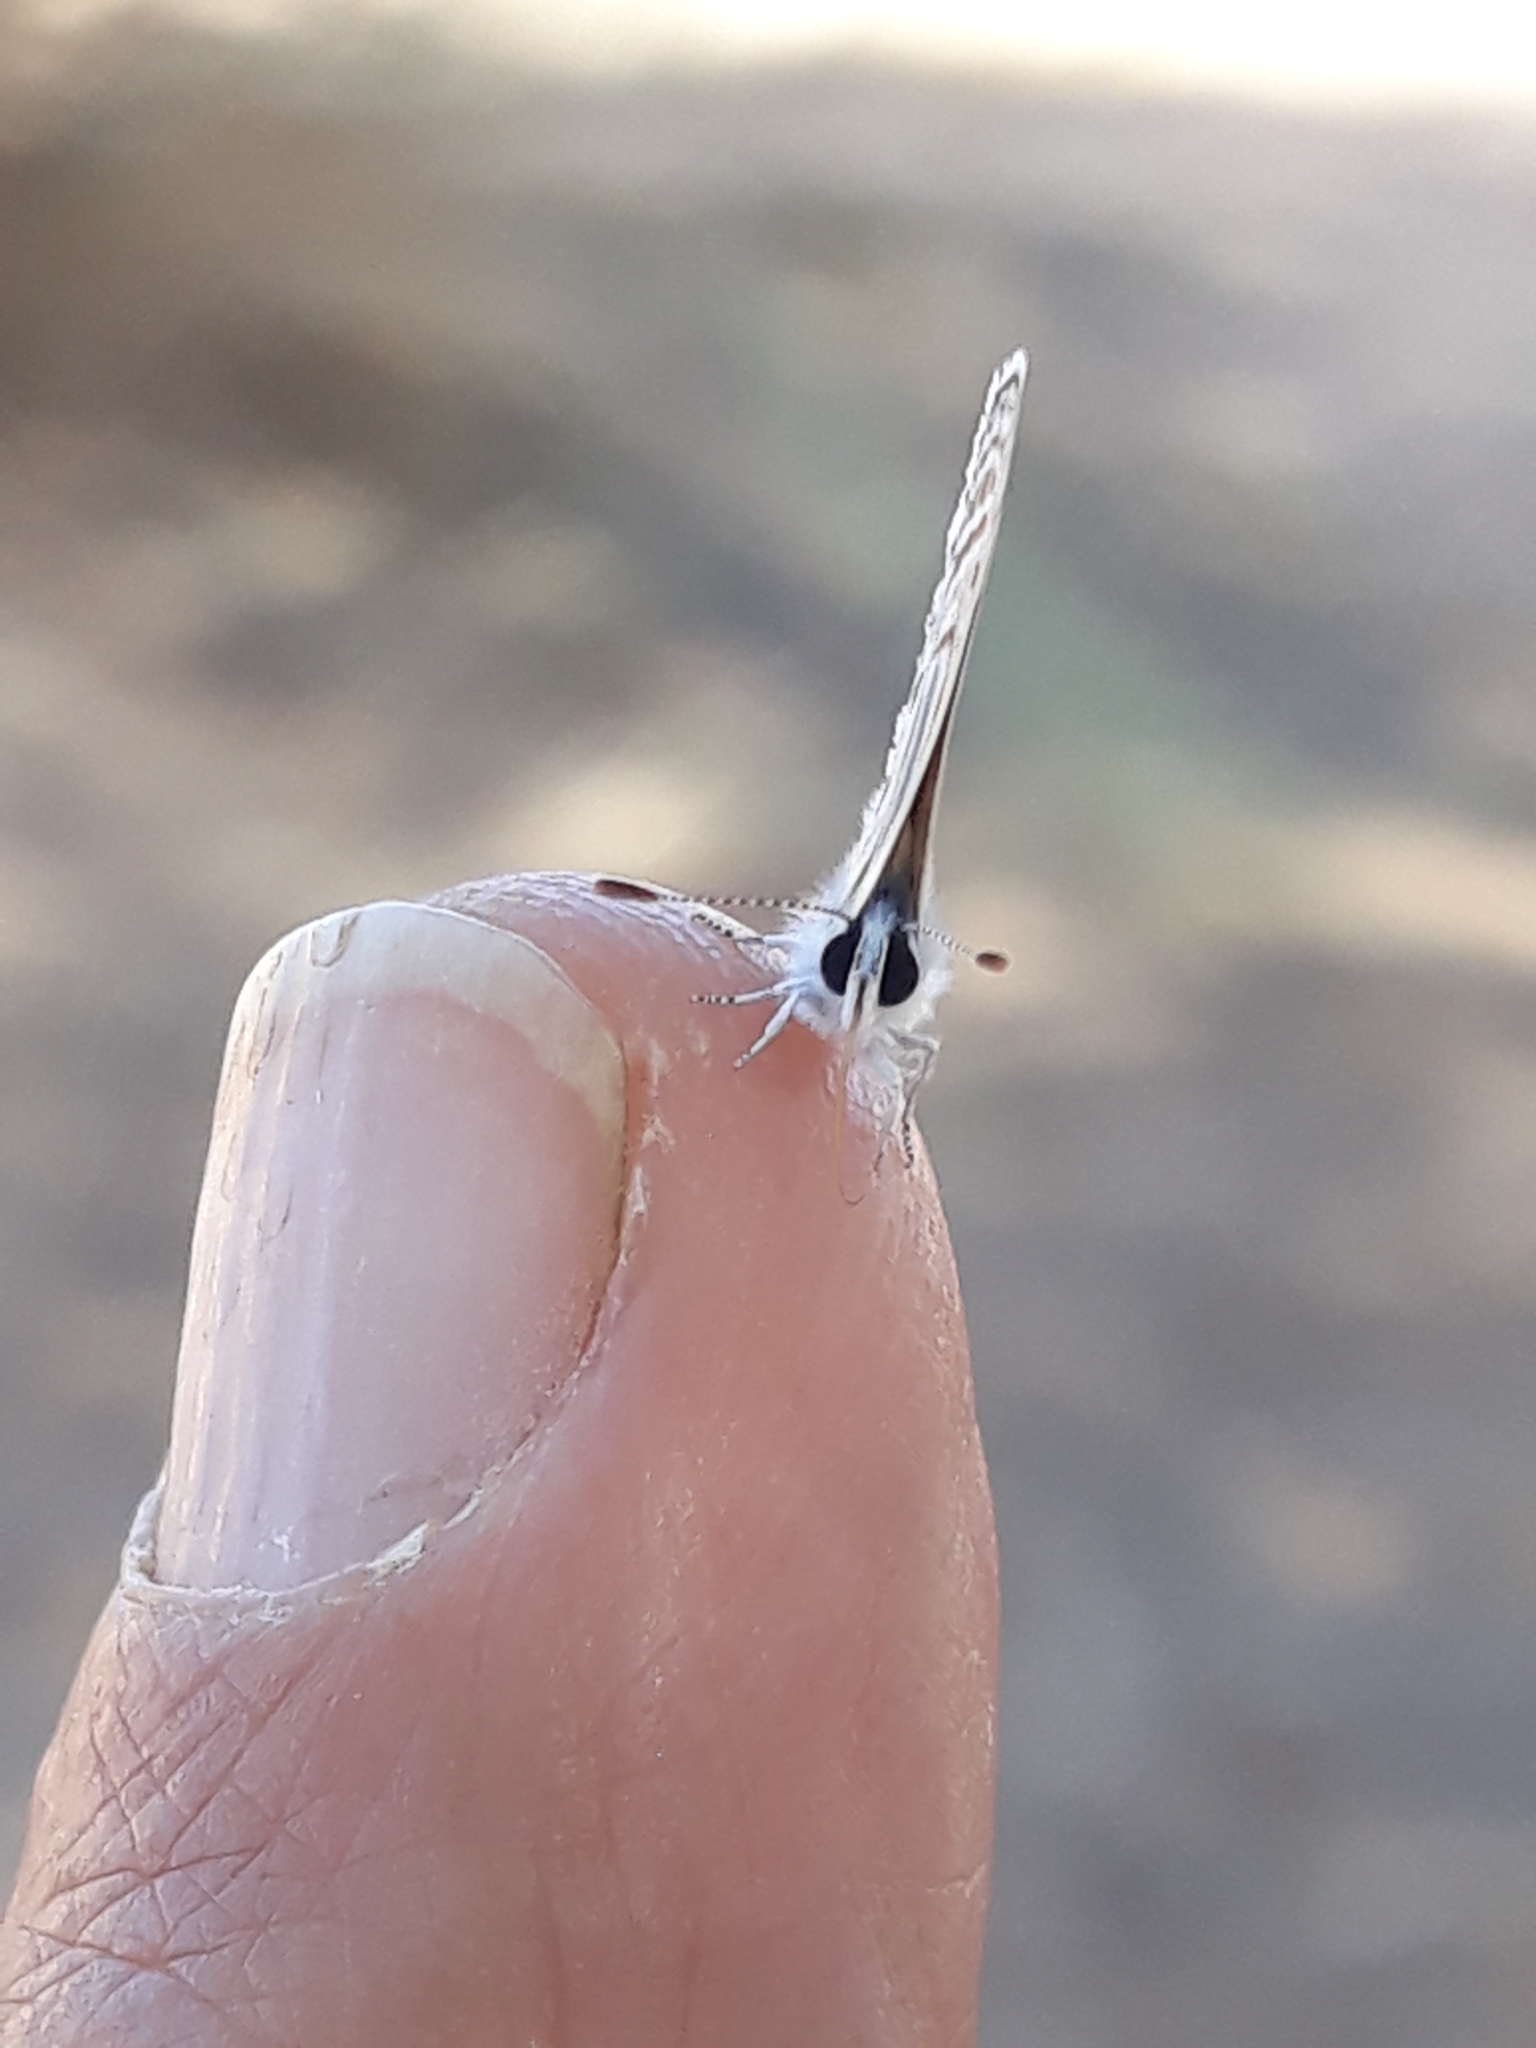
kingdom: Animalia
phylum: Arthropoda
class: Insecta
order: Lepidoptera
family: Lycaenidae
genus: Azanus
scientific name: Azanus ubaldus
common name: Desert babul blue
